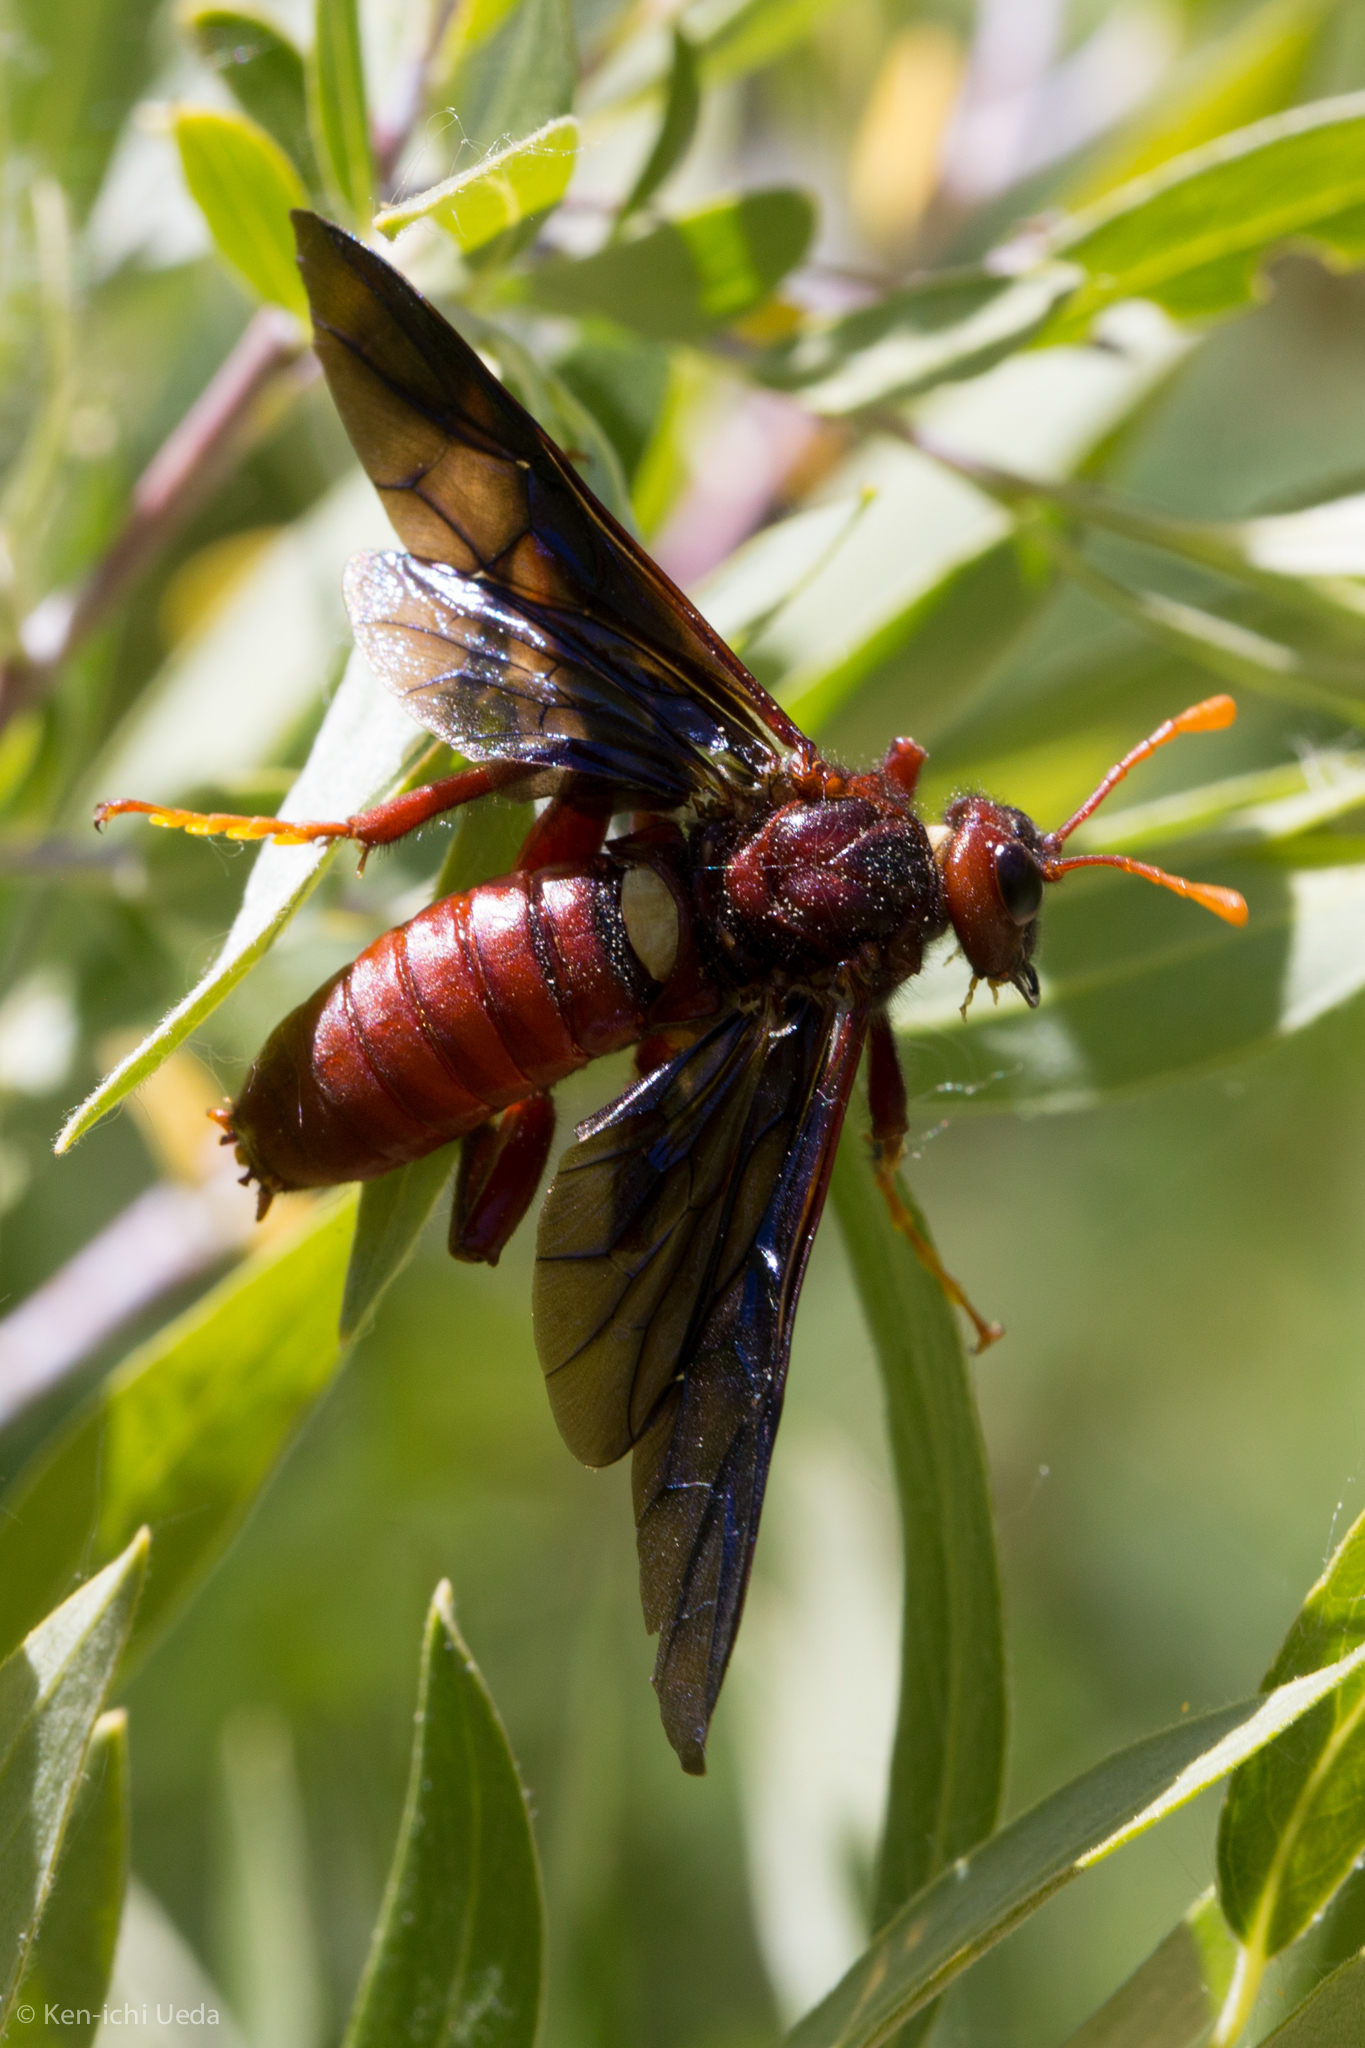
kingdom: Animalia
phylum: Arthropoda
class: Insecta
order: Hymenoptera
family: Cimbicidae
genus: Cimbex
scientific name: Cimbex
